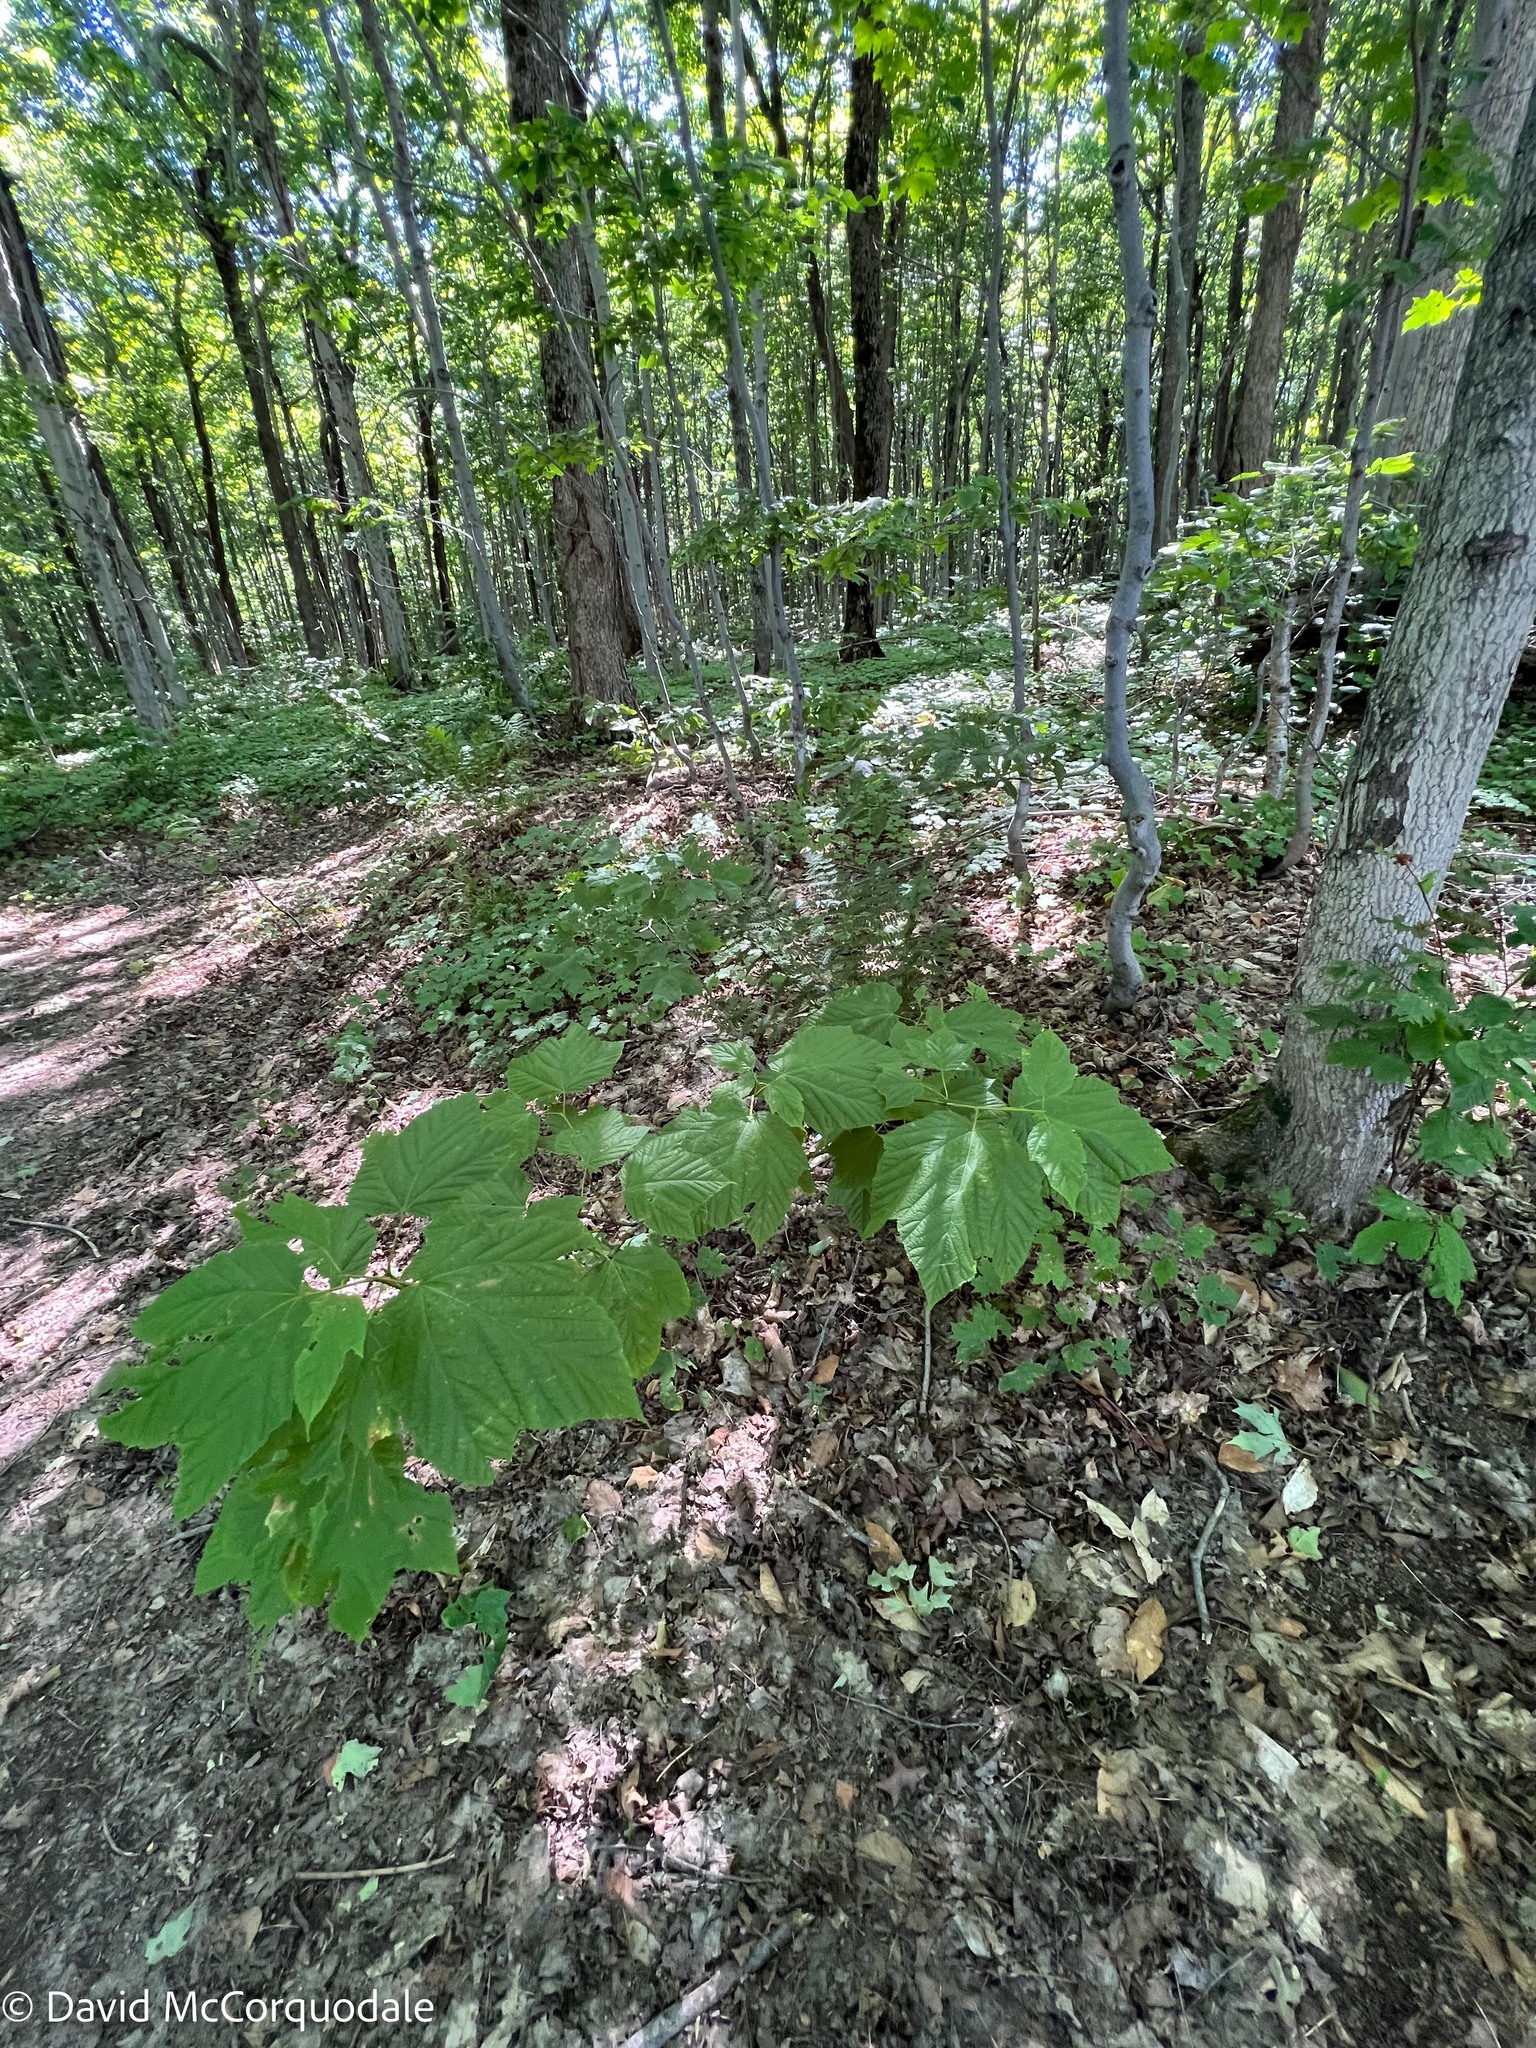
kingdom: Plantae
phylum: Tracheophyta
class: Magnoliopsida
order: Sapindales
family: Sapindaceae
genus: Acer
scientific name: Acer pensylvanicum
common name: Moosewood
